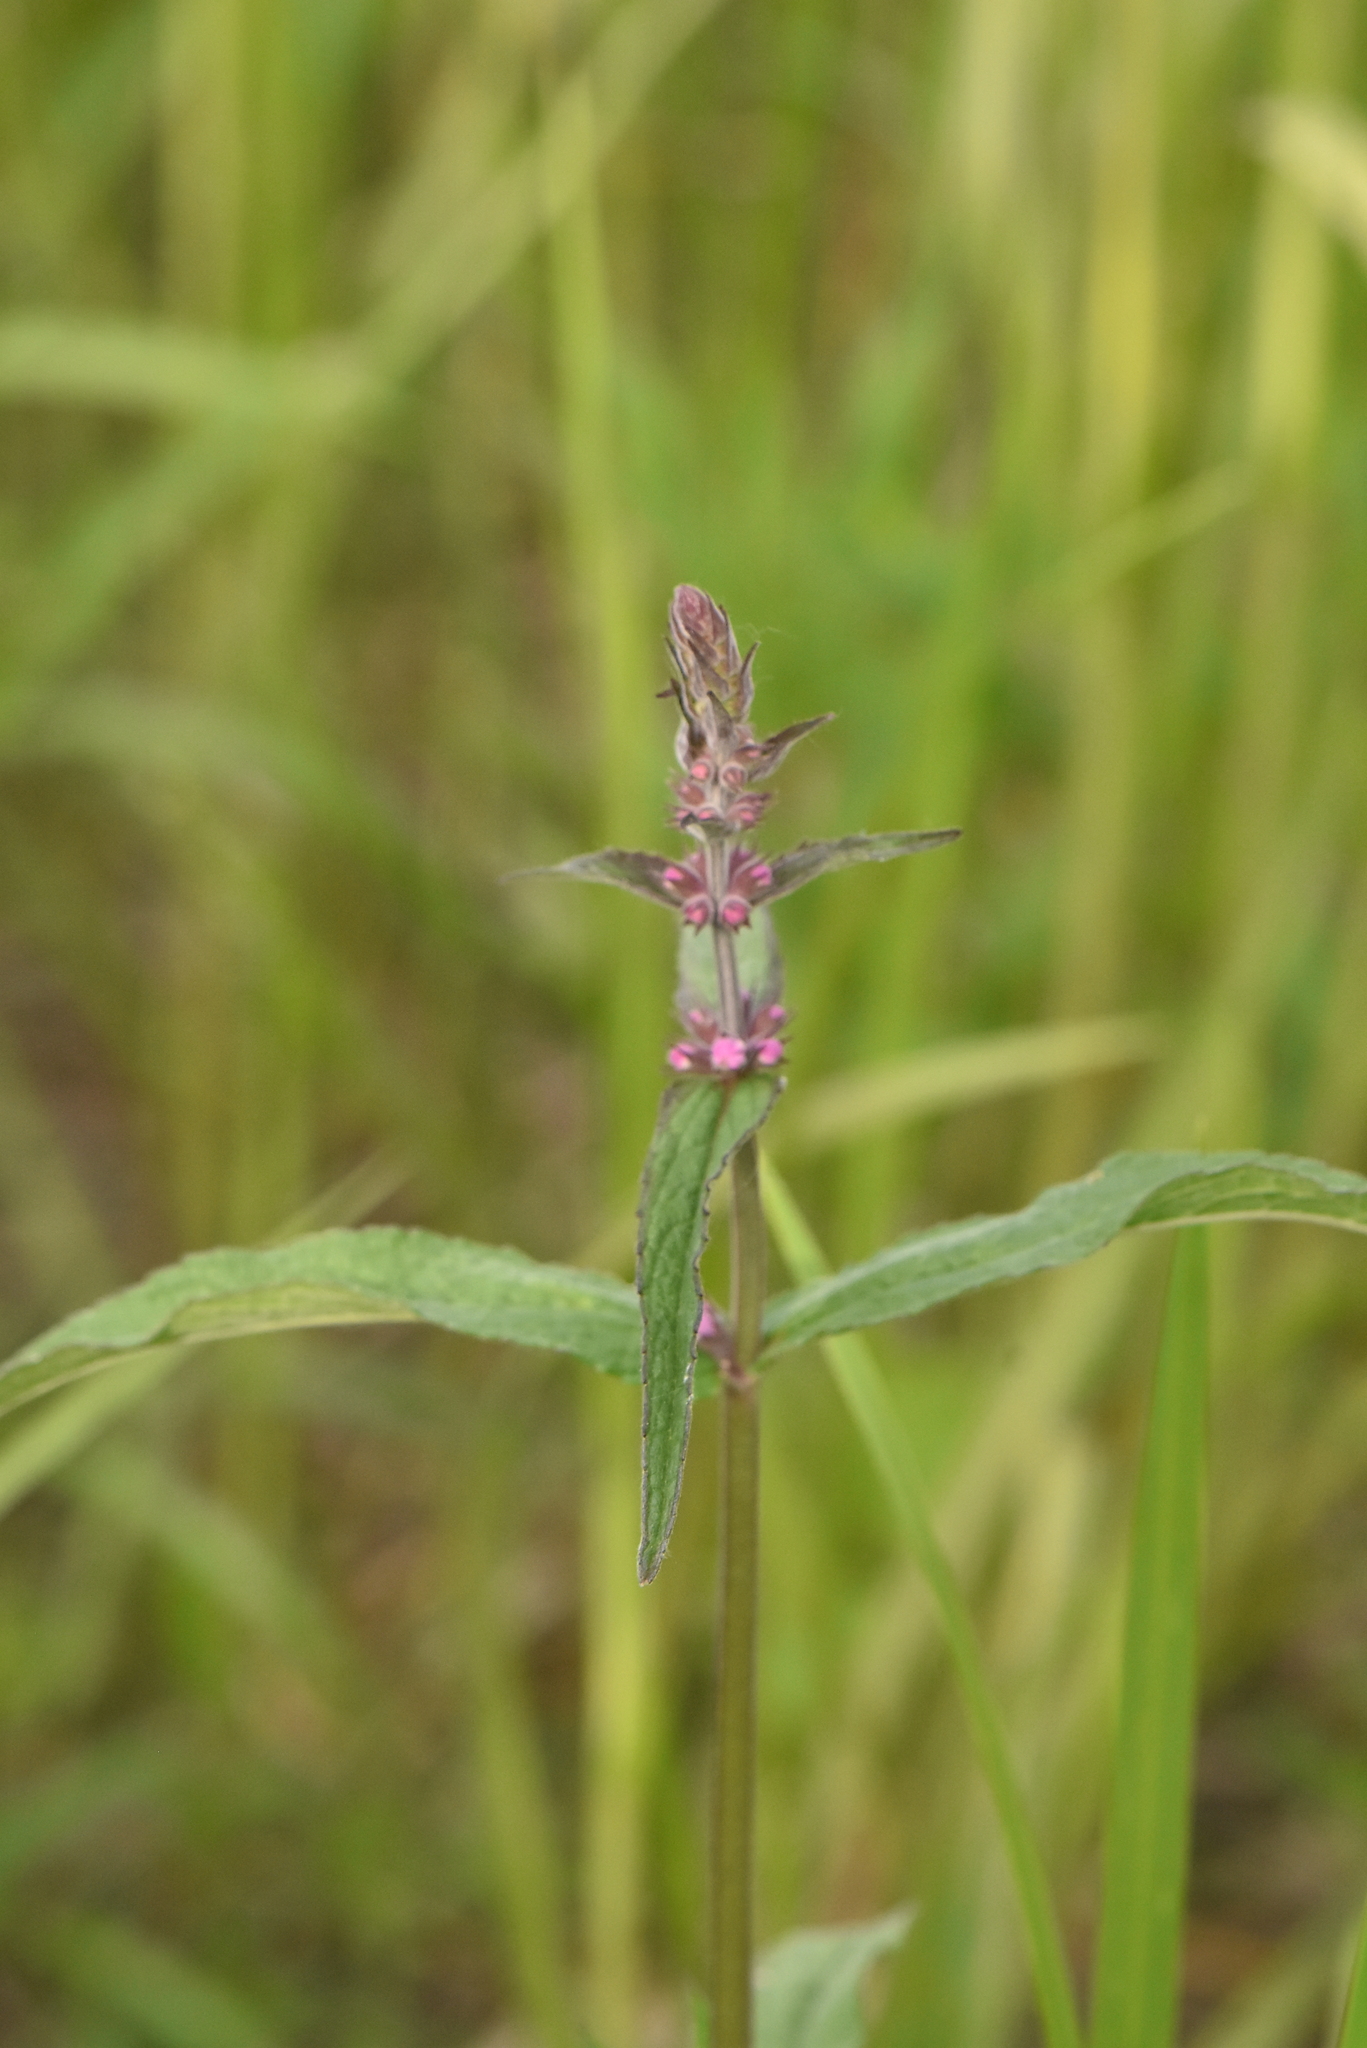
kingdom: Plantae
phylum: Tracheophyta
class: Magnoliopsida
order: Lamiales
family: Lamiaceae
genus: Stachys
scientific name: Stachys palustris
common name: Marsh woundwort
